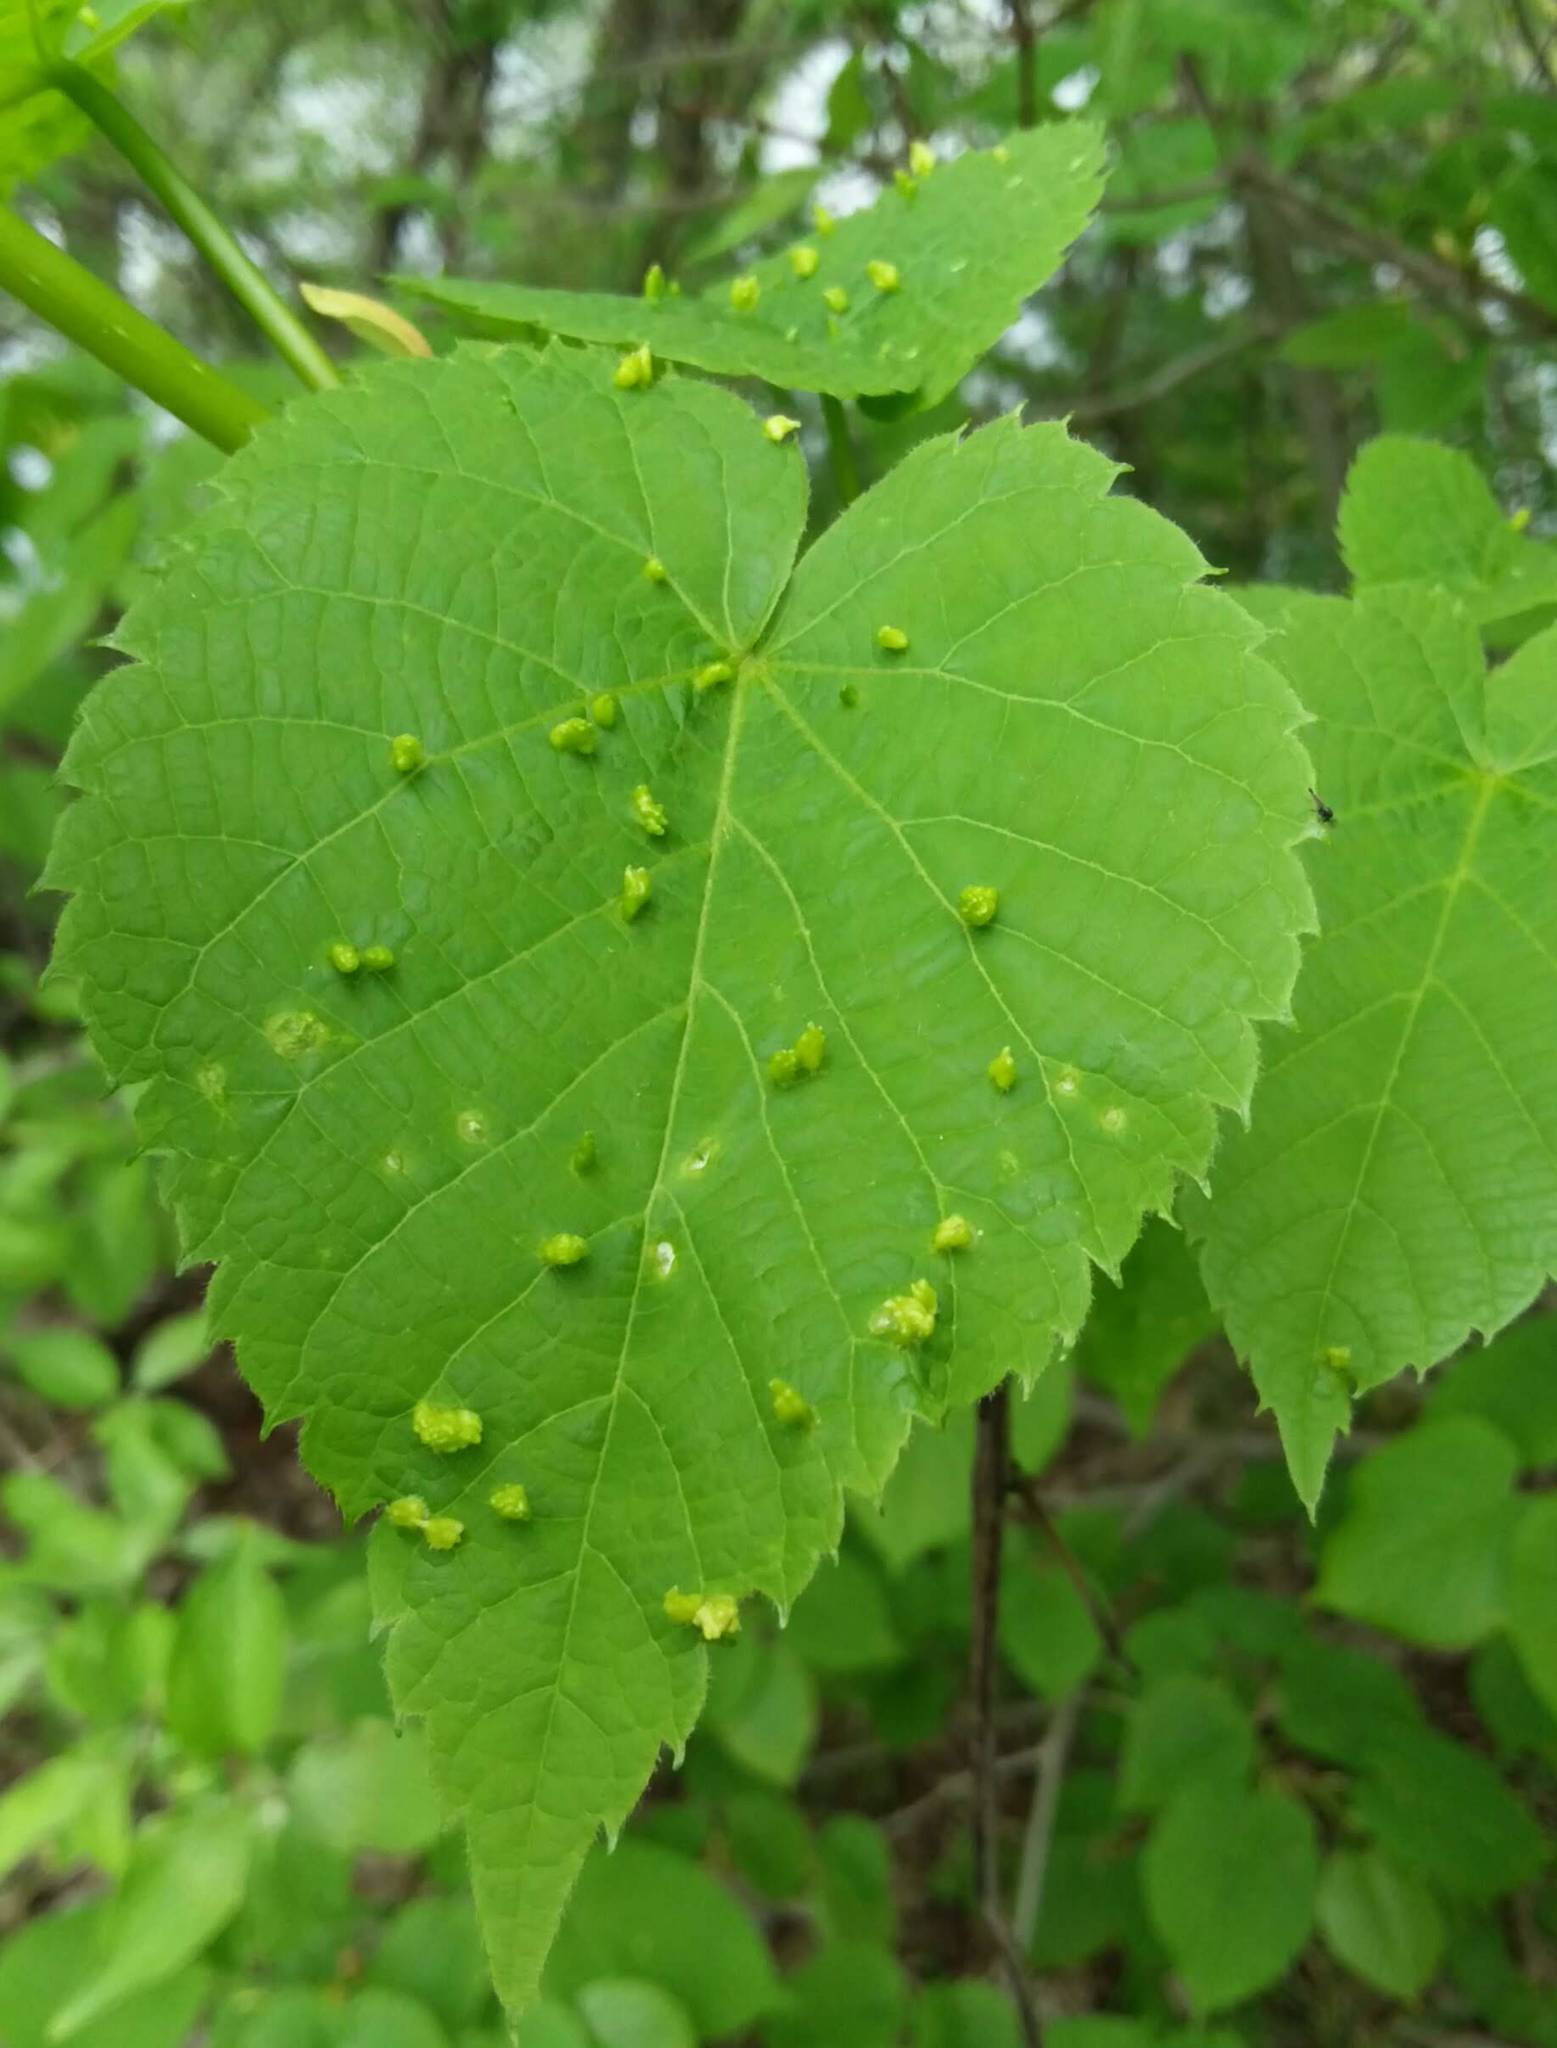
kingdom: Animalia
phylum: Arthropoda
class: Arachnida
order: Trombidiformes
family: Eriophyidae
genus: Eriophyes
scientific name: Eriophyes tiliae
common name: Red nail gall mite
